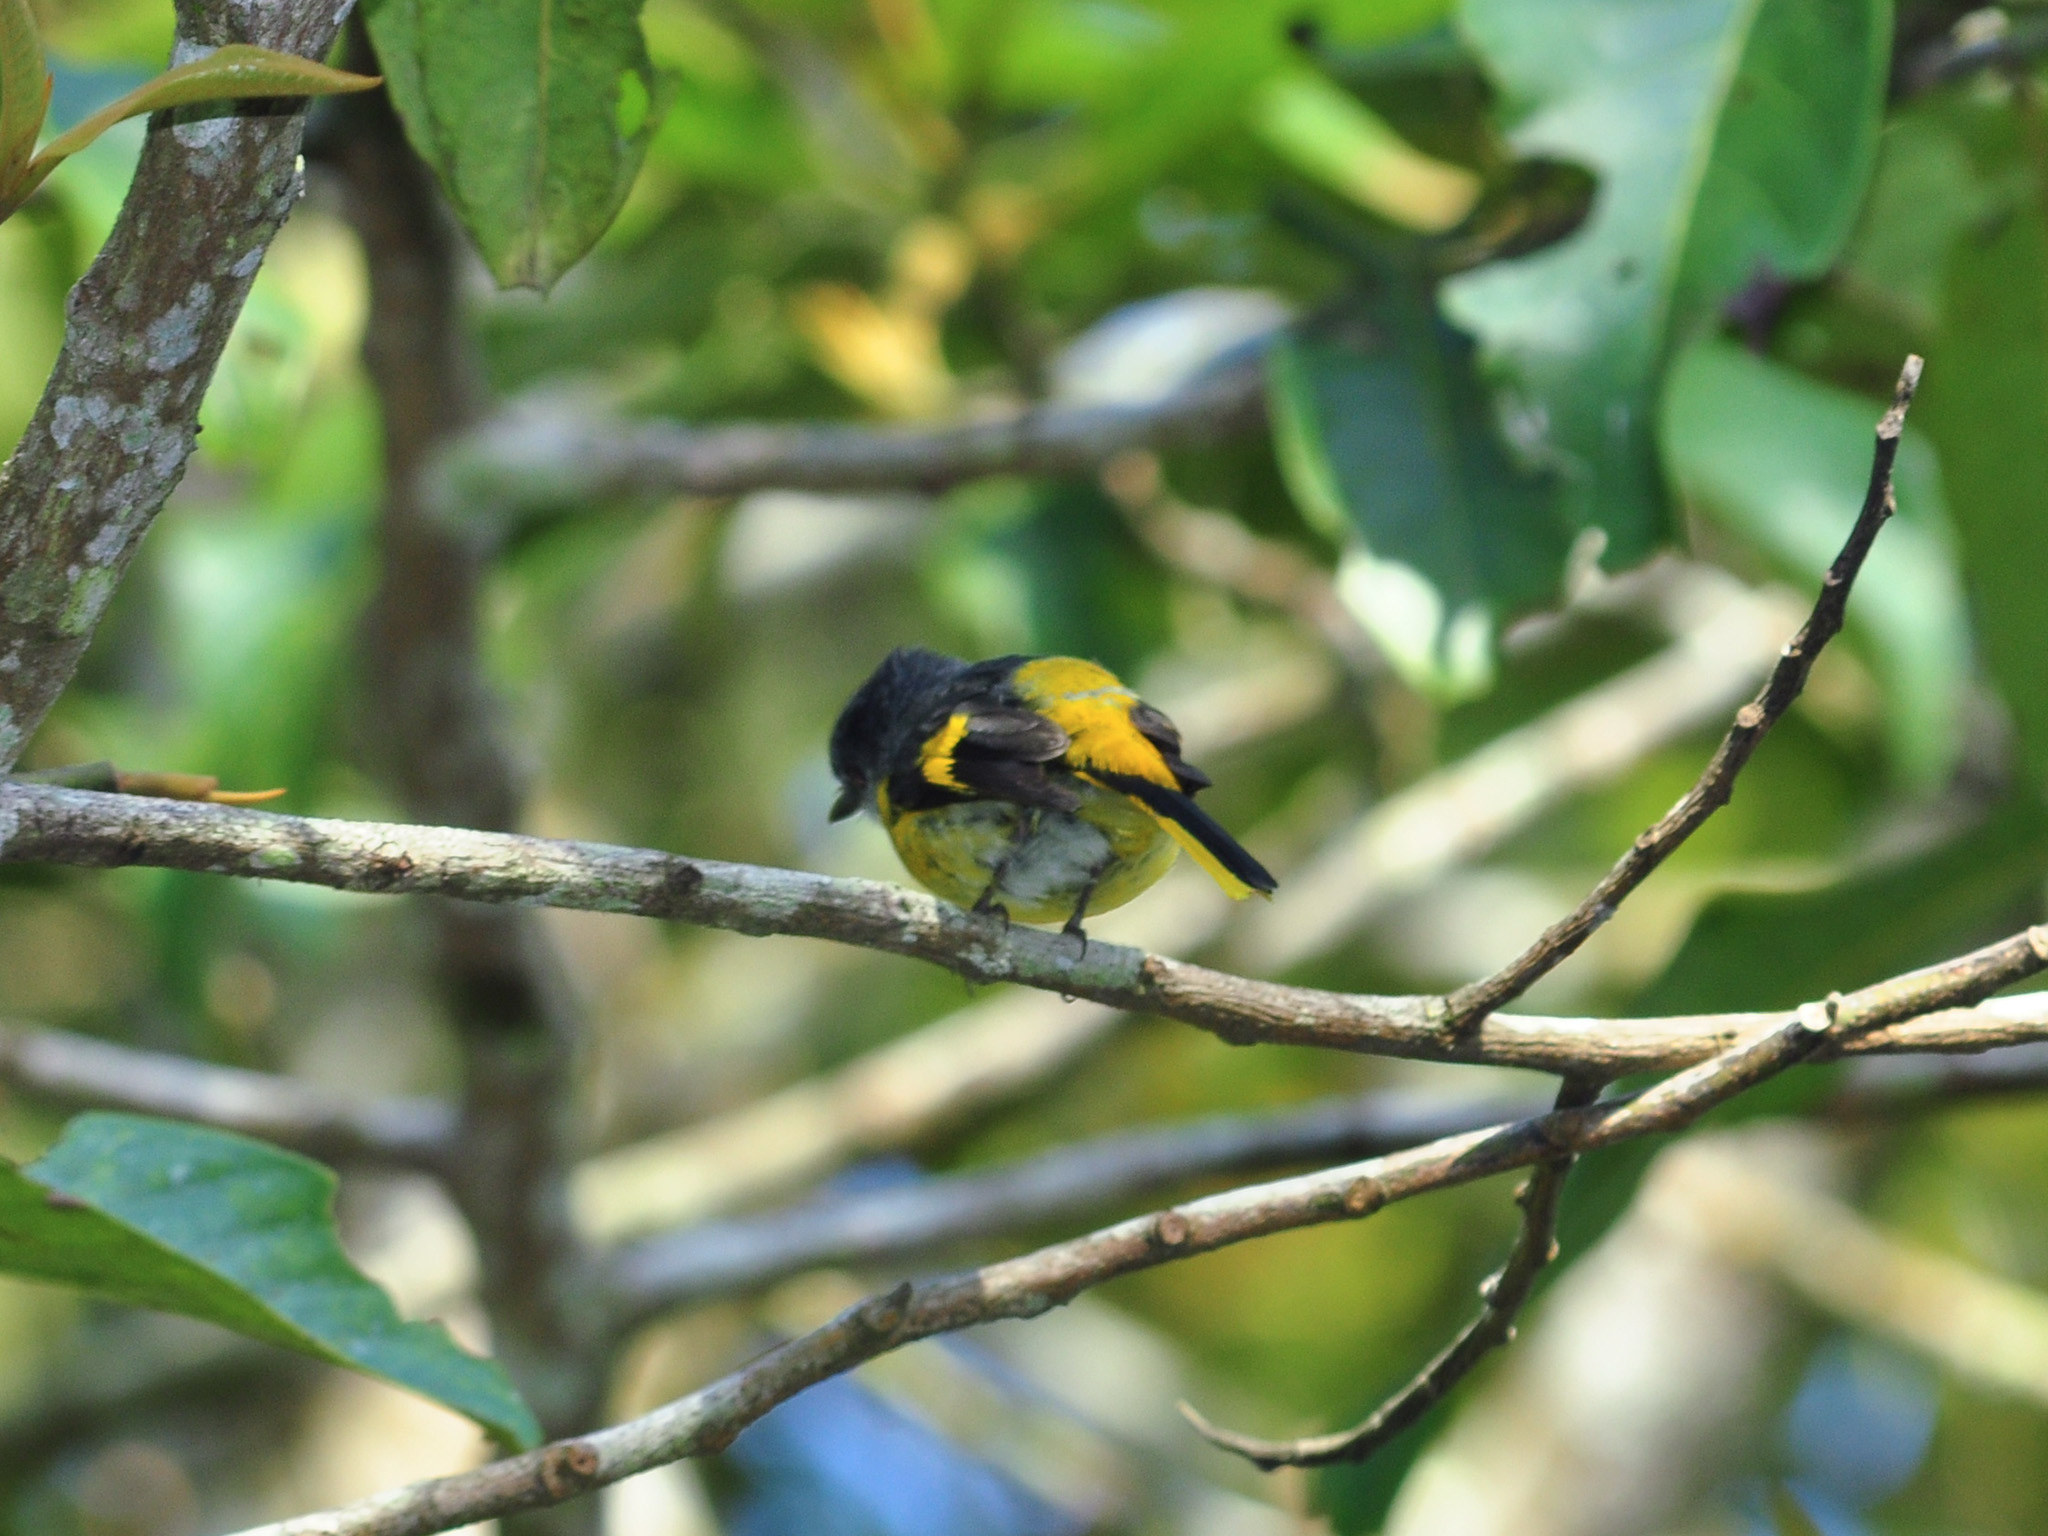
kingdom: Animalia
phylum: Chordata
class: Aves
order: Passeriformes
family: Campephagidae
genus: Pericrocotus
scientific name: Pericrocotus solaris
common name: Grey-chinned minivet
